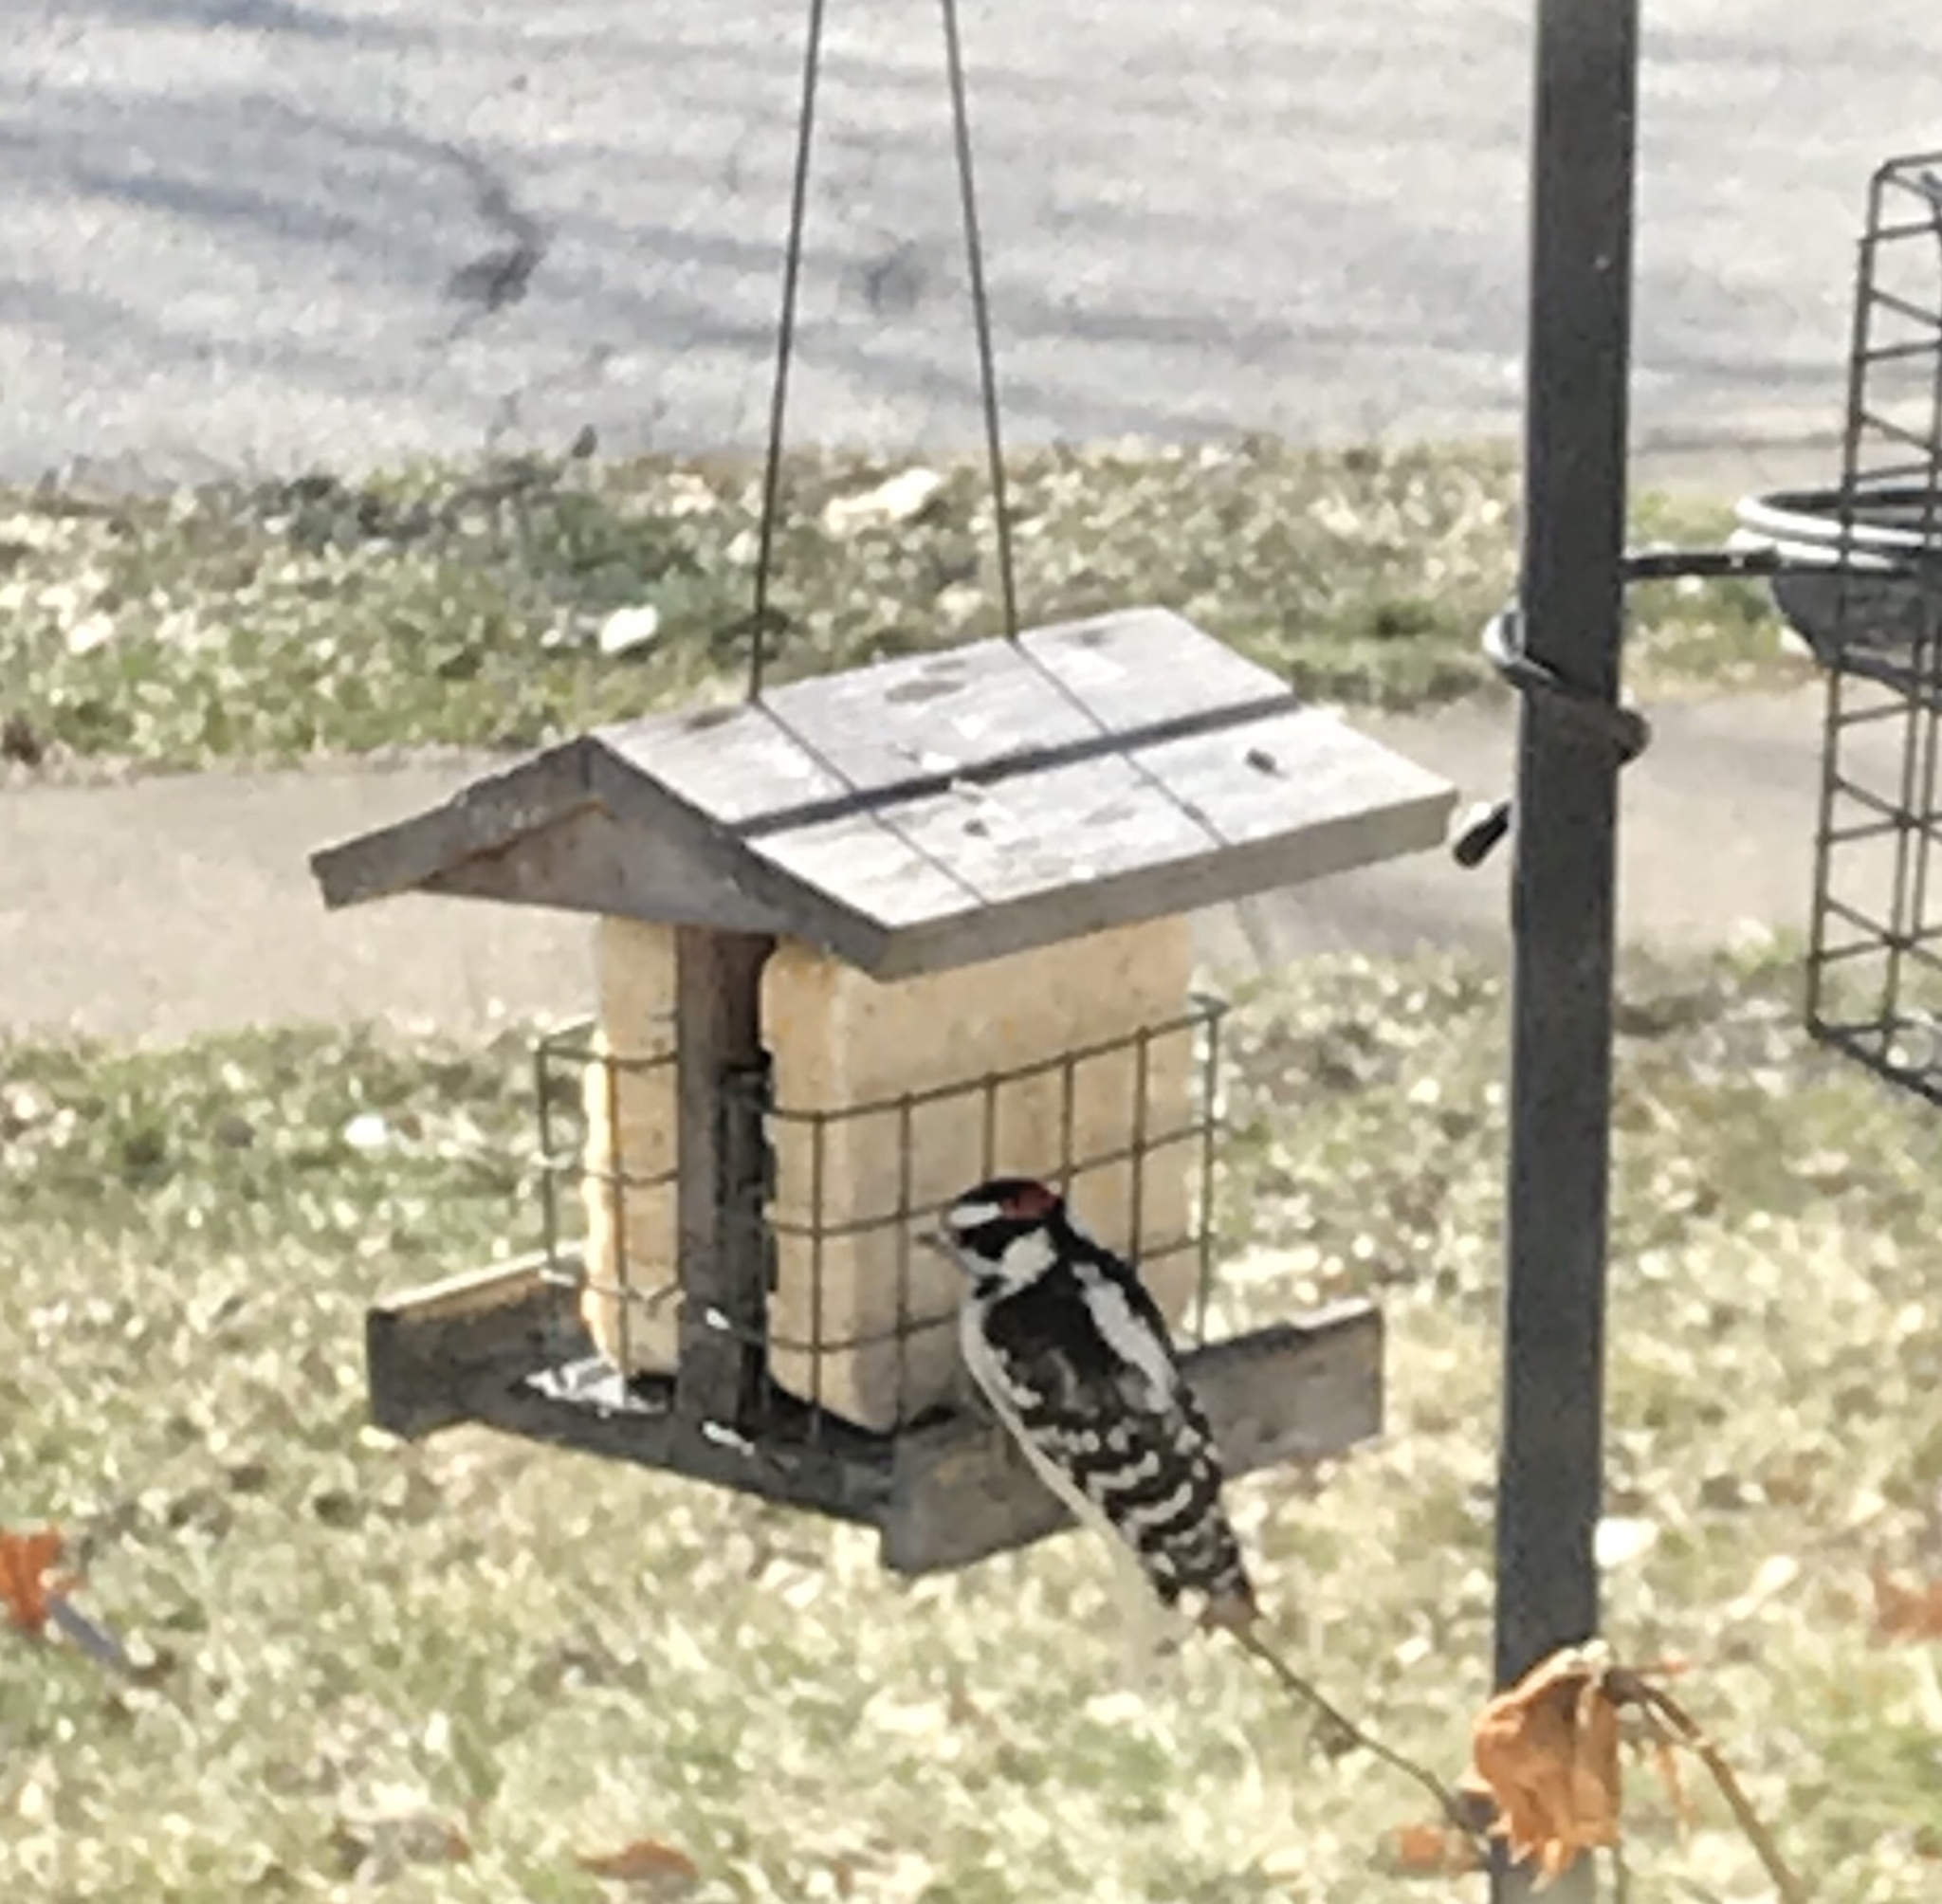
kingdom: Animalia
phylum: Chordata
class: Aves
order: Piciformes
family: Picidae
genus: Dryobates
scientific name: Dryobates pubescens
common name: Downy woodpecker
